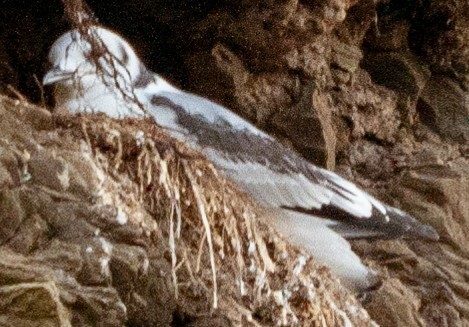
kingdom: Animalia
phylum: Chordata
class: Aves
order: Charadriiformes
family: Laridae
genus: Rissa
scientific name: Rissa tridactyla
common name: Black-legged kittiwake
